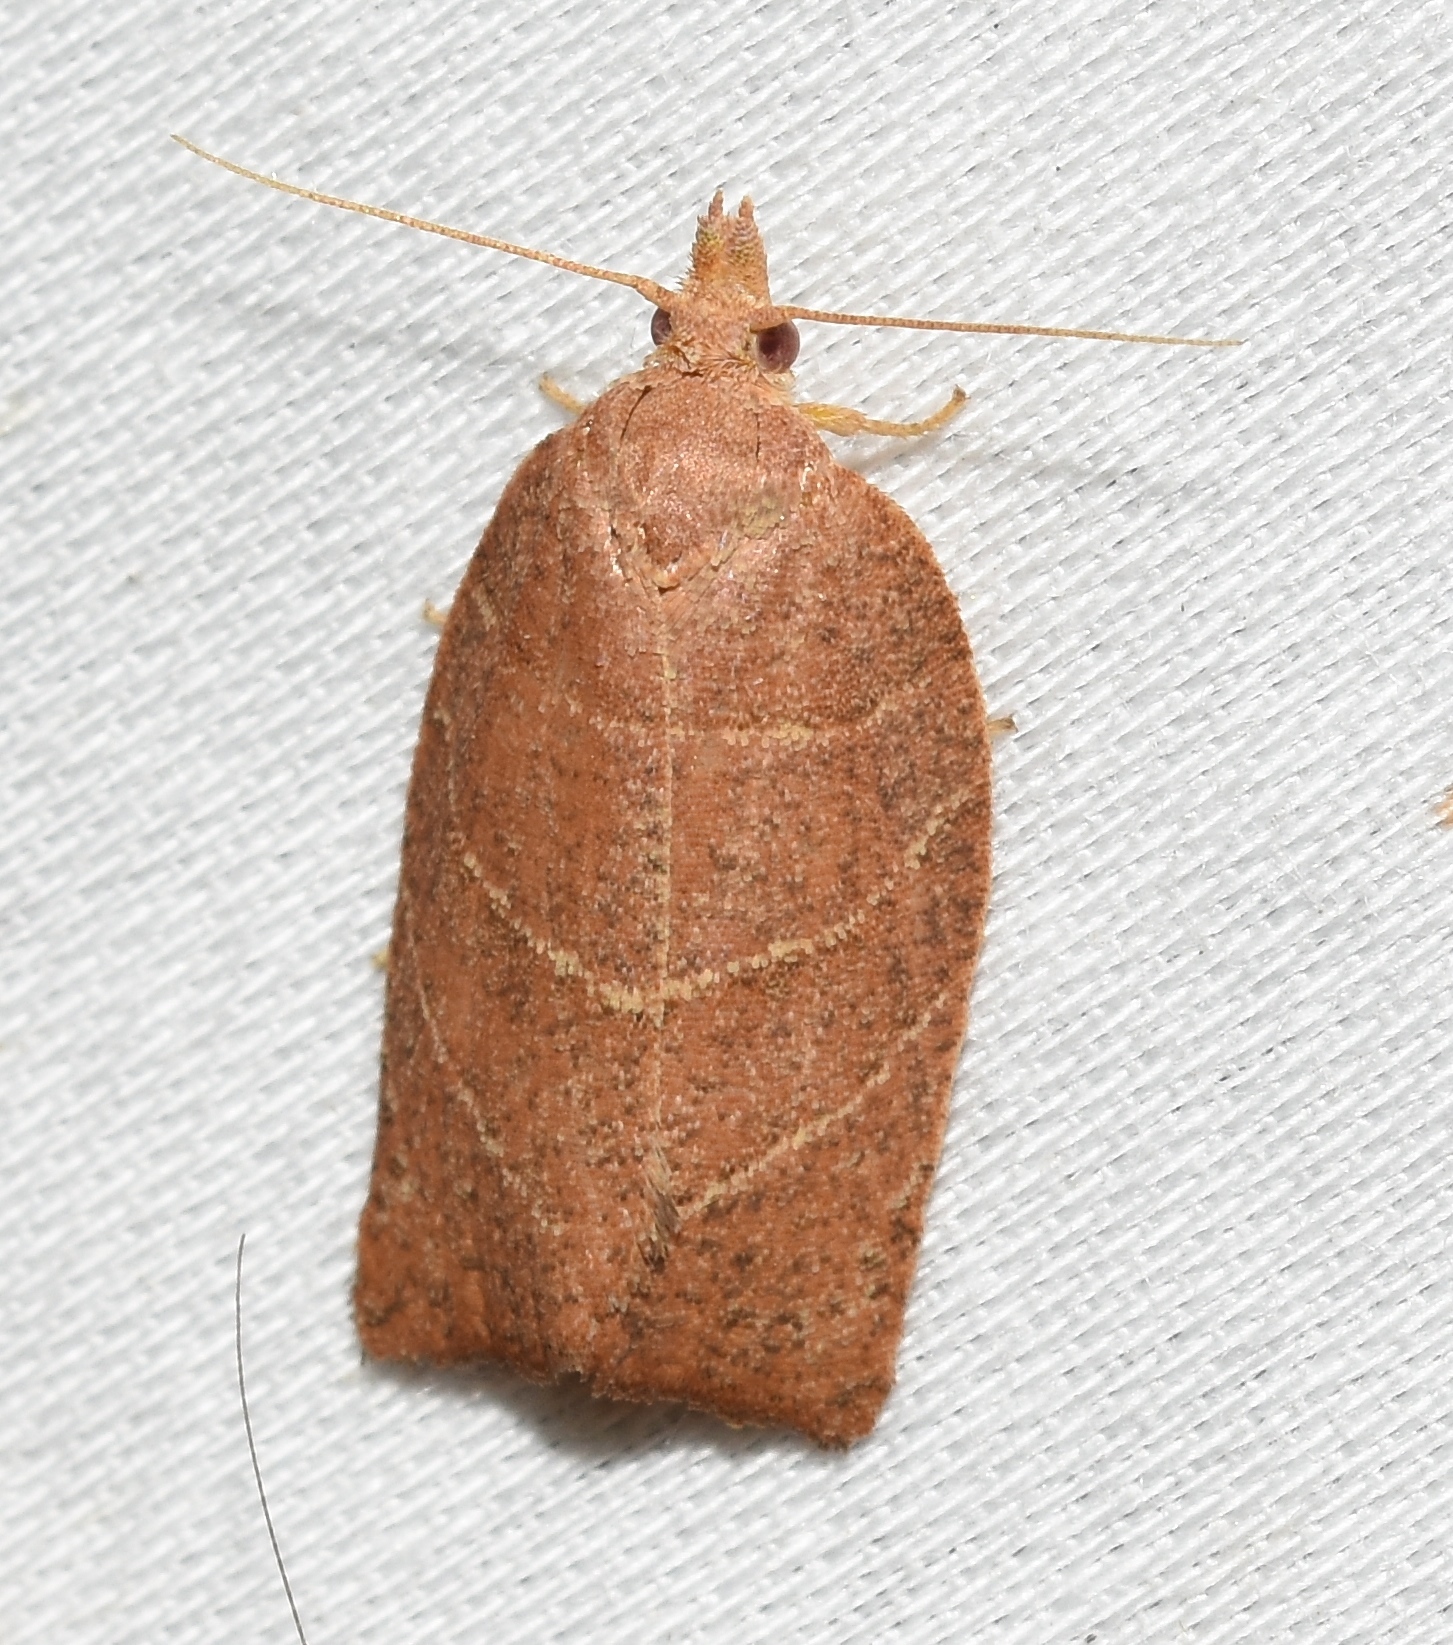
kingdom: Animalia
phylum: Arthropoda
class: Insecta
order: Lepidoptera
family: Tortricidae
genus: Pandemis
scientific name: Pandemis limitata
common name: Three-lined leafroller moth
